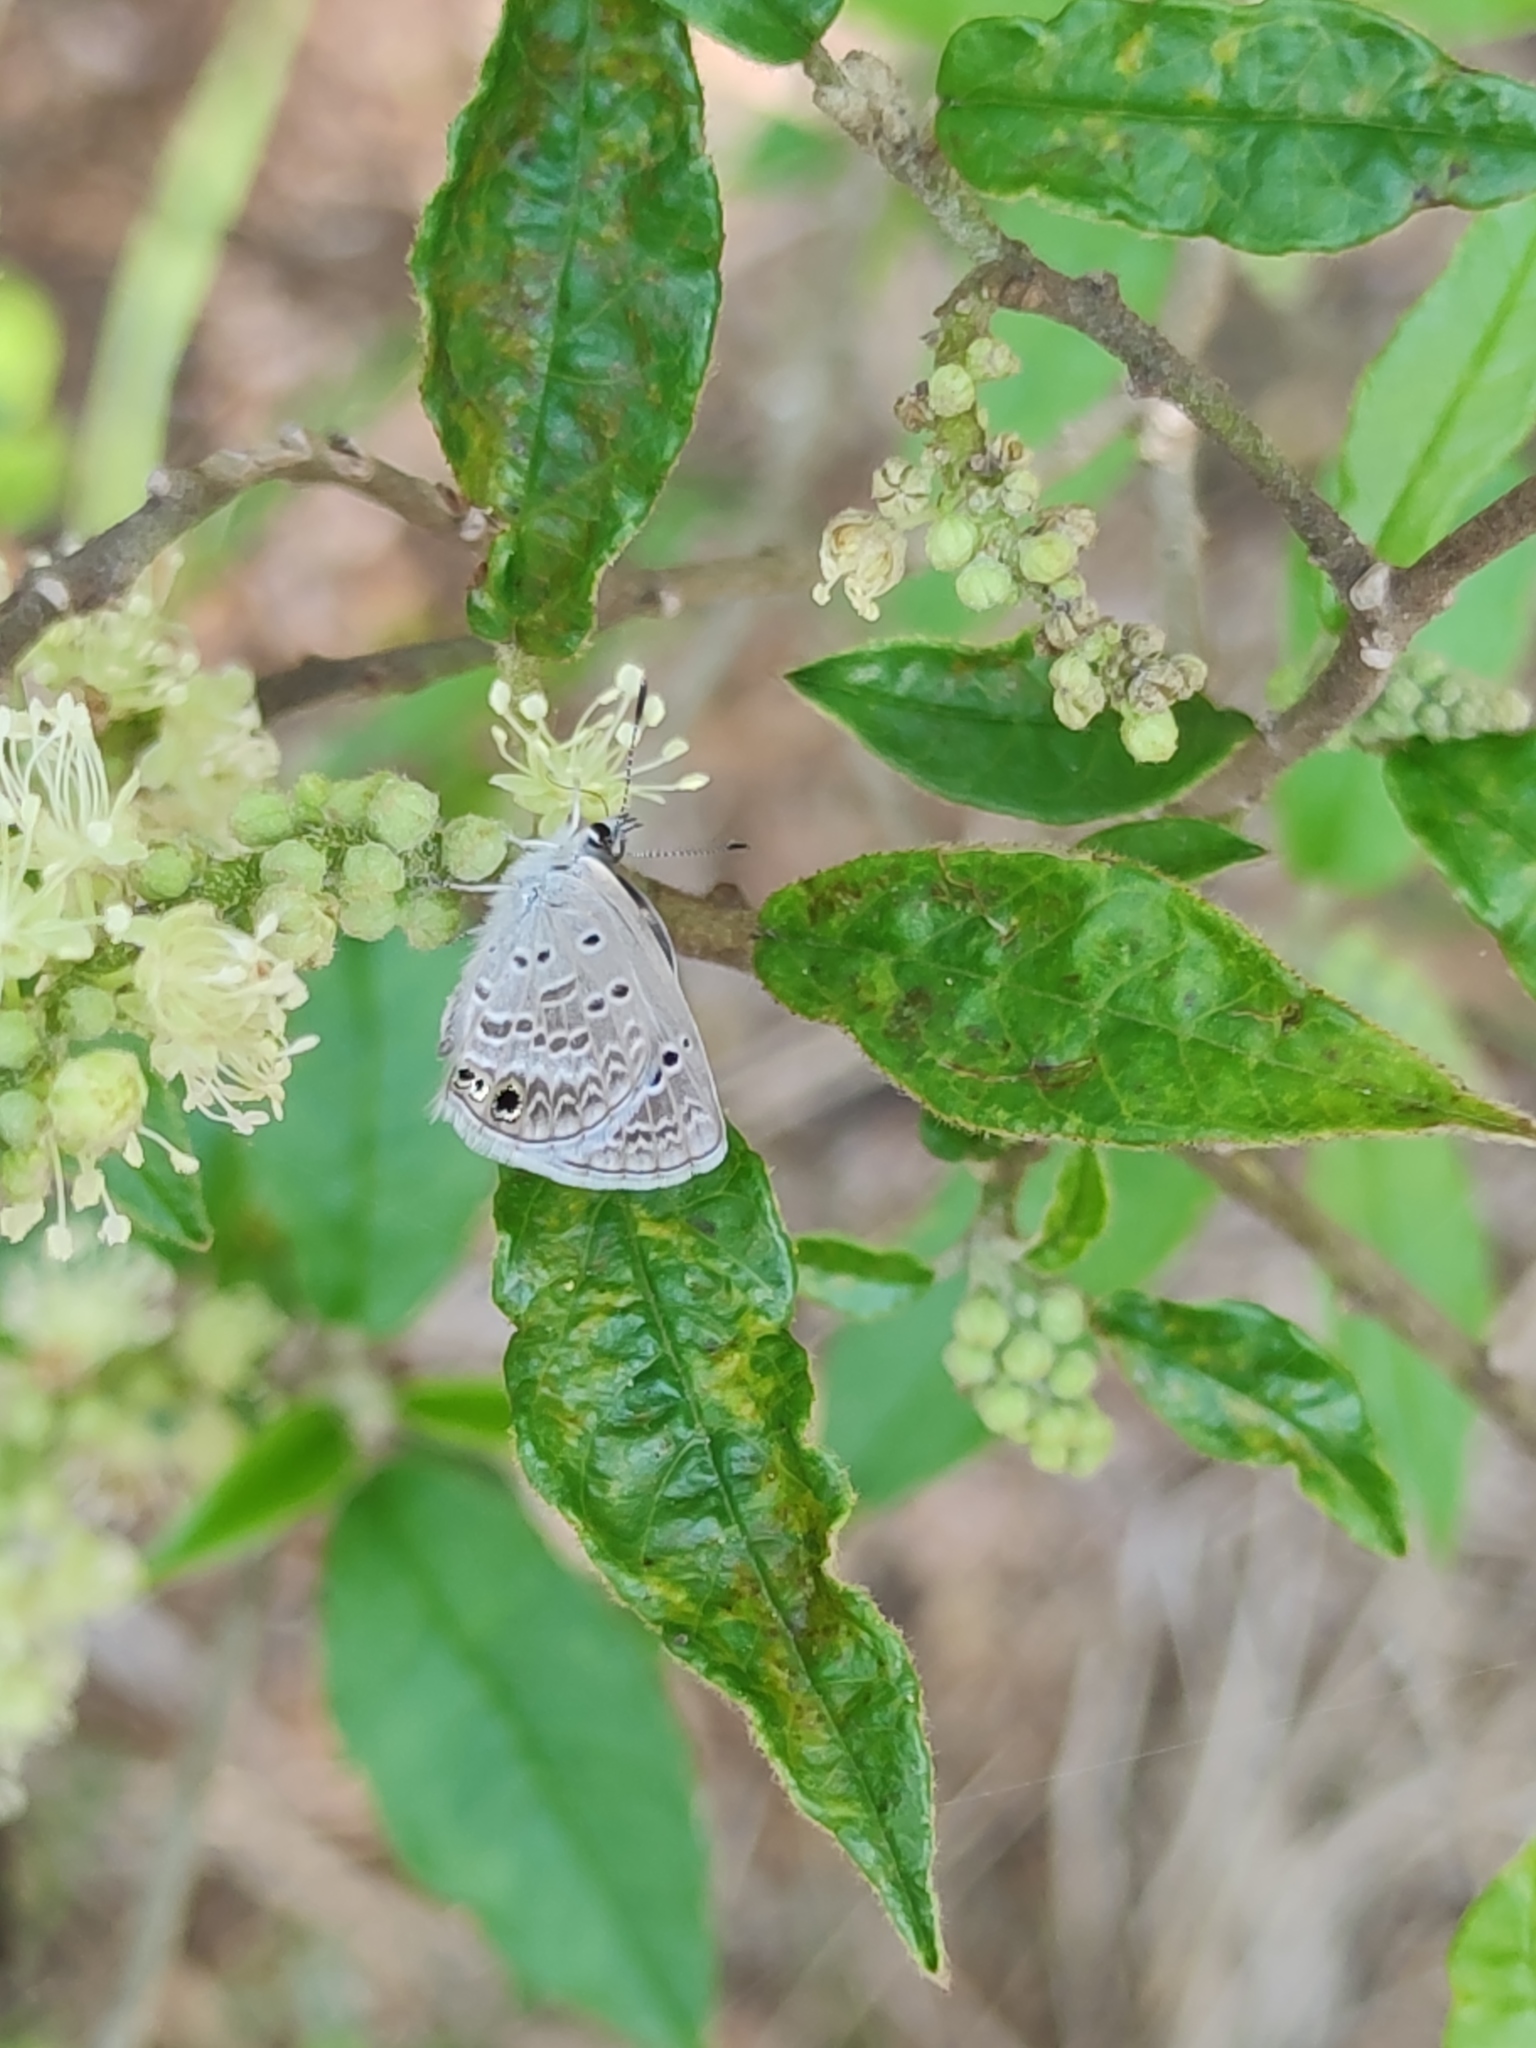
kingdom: Animalia
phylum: Arthropoda
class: Insecta
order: Lepidoptera
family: Lycaenidae
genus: Echinargus
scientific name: Echinargus isola
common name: Reakirt's blue
